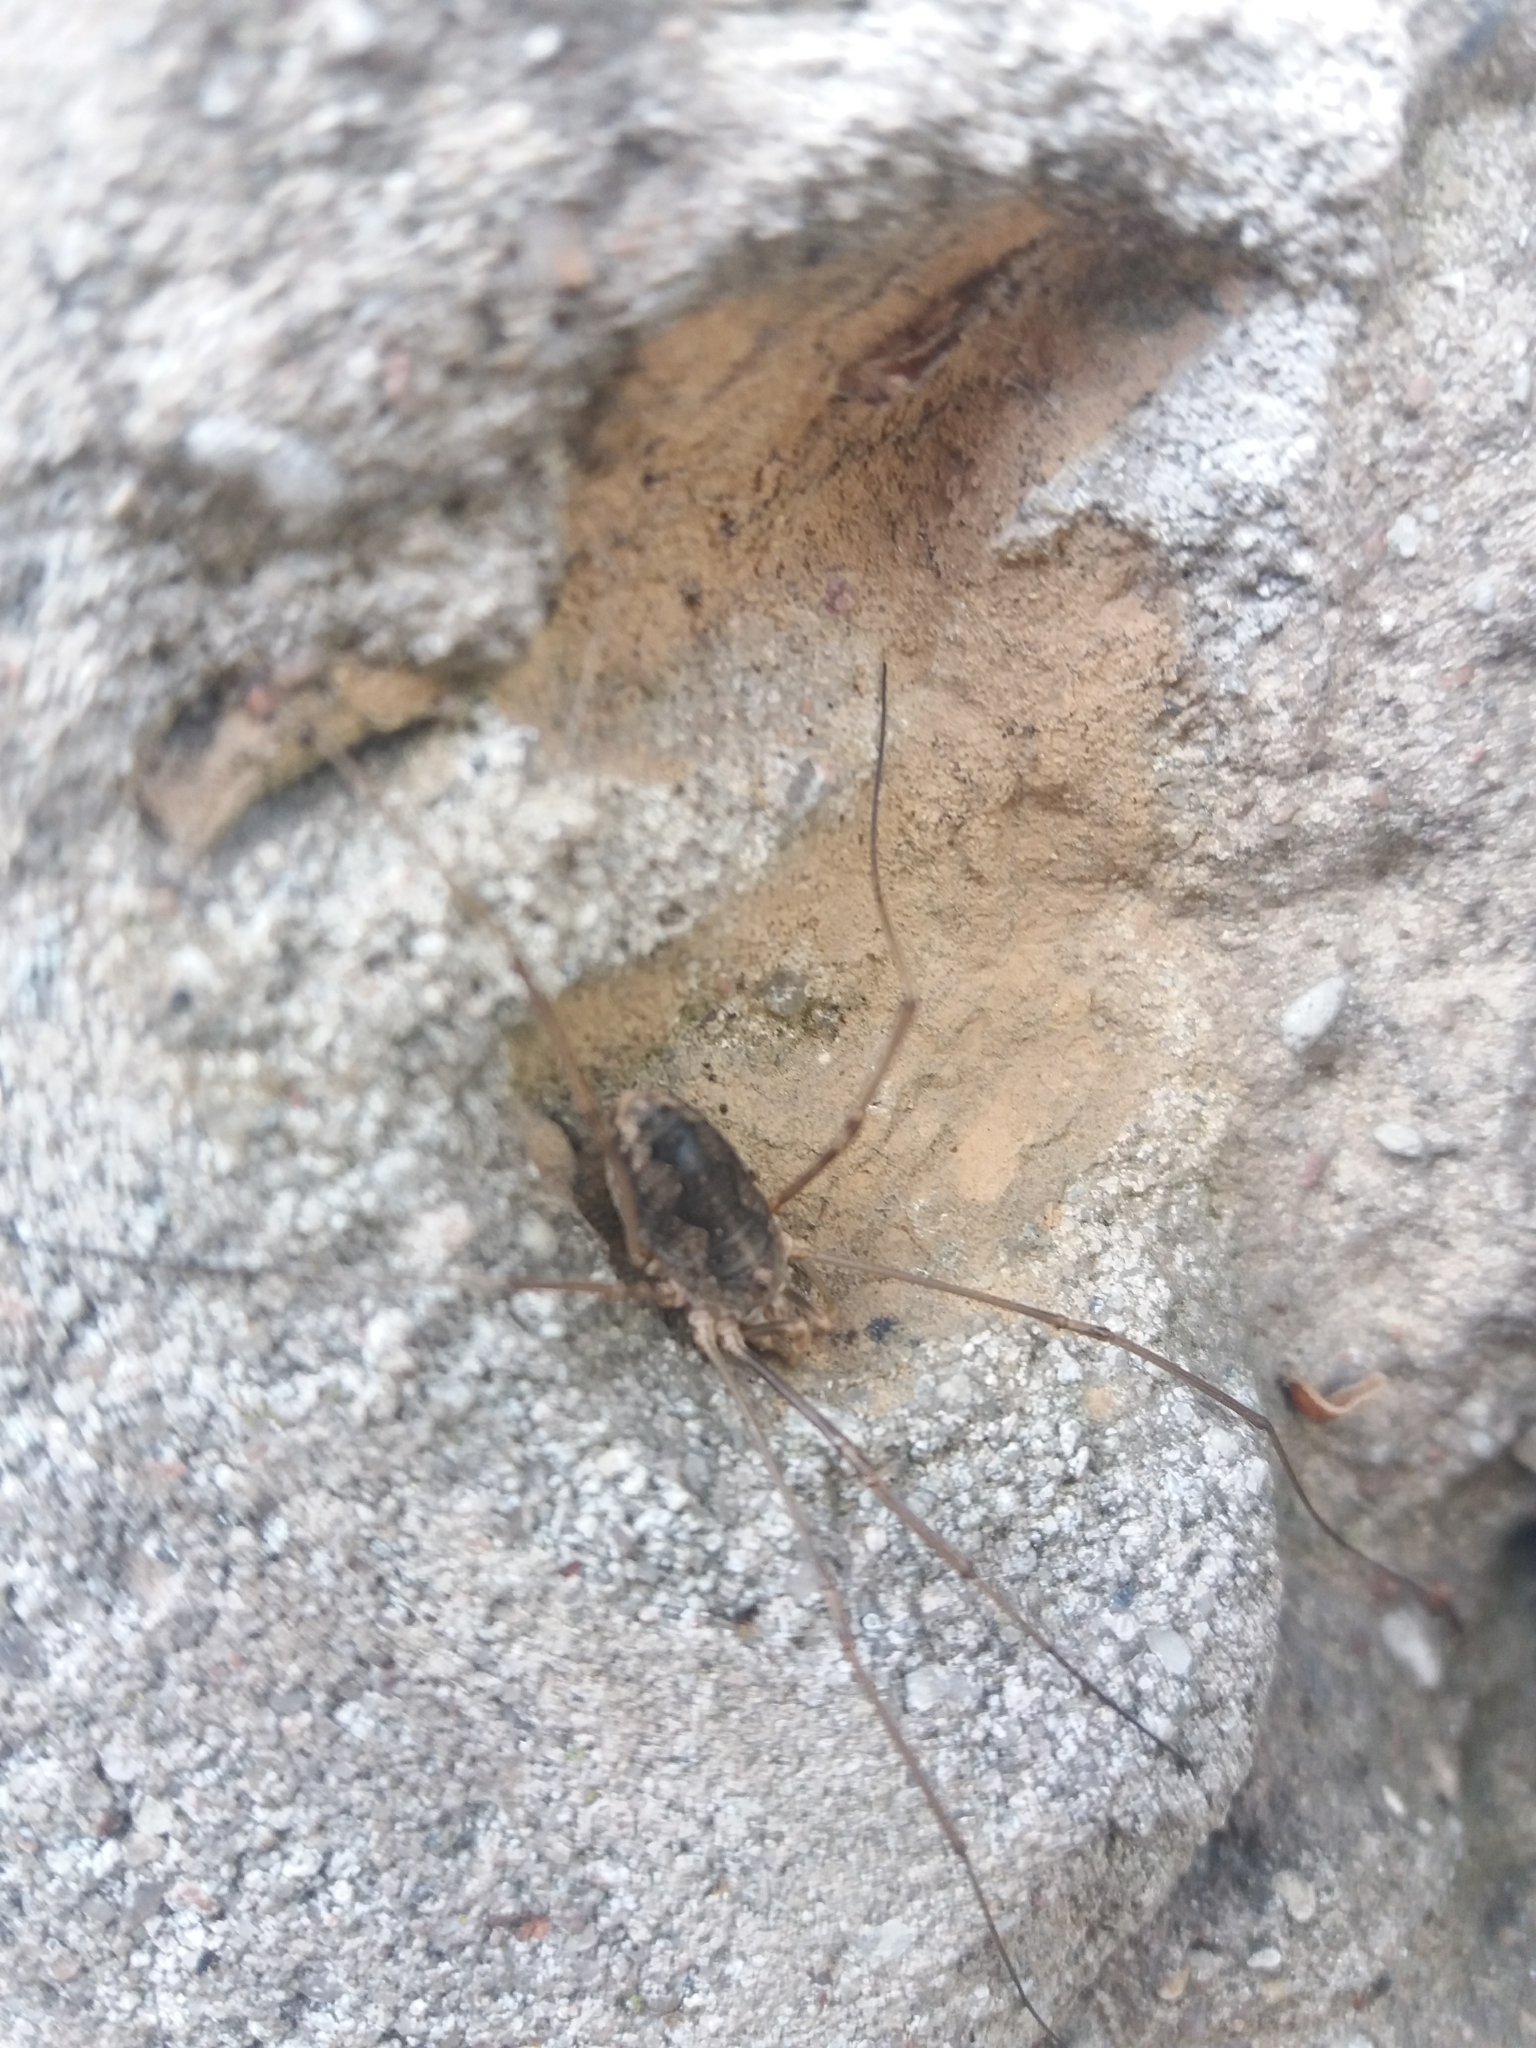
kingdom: Animalia
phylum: Arthropoda
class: Arachnida
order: Opiliones
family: Phalangiidae
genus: Phalangium
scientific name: Phalangium opilio
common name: Daddy longleg
